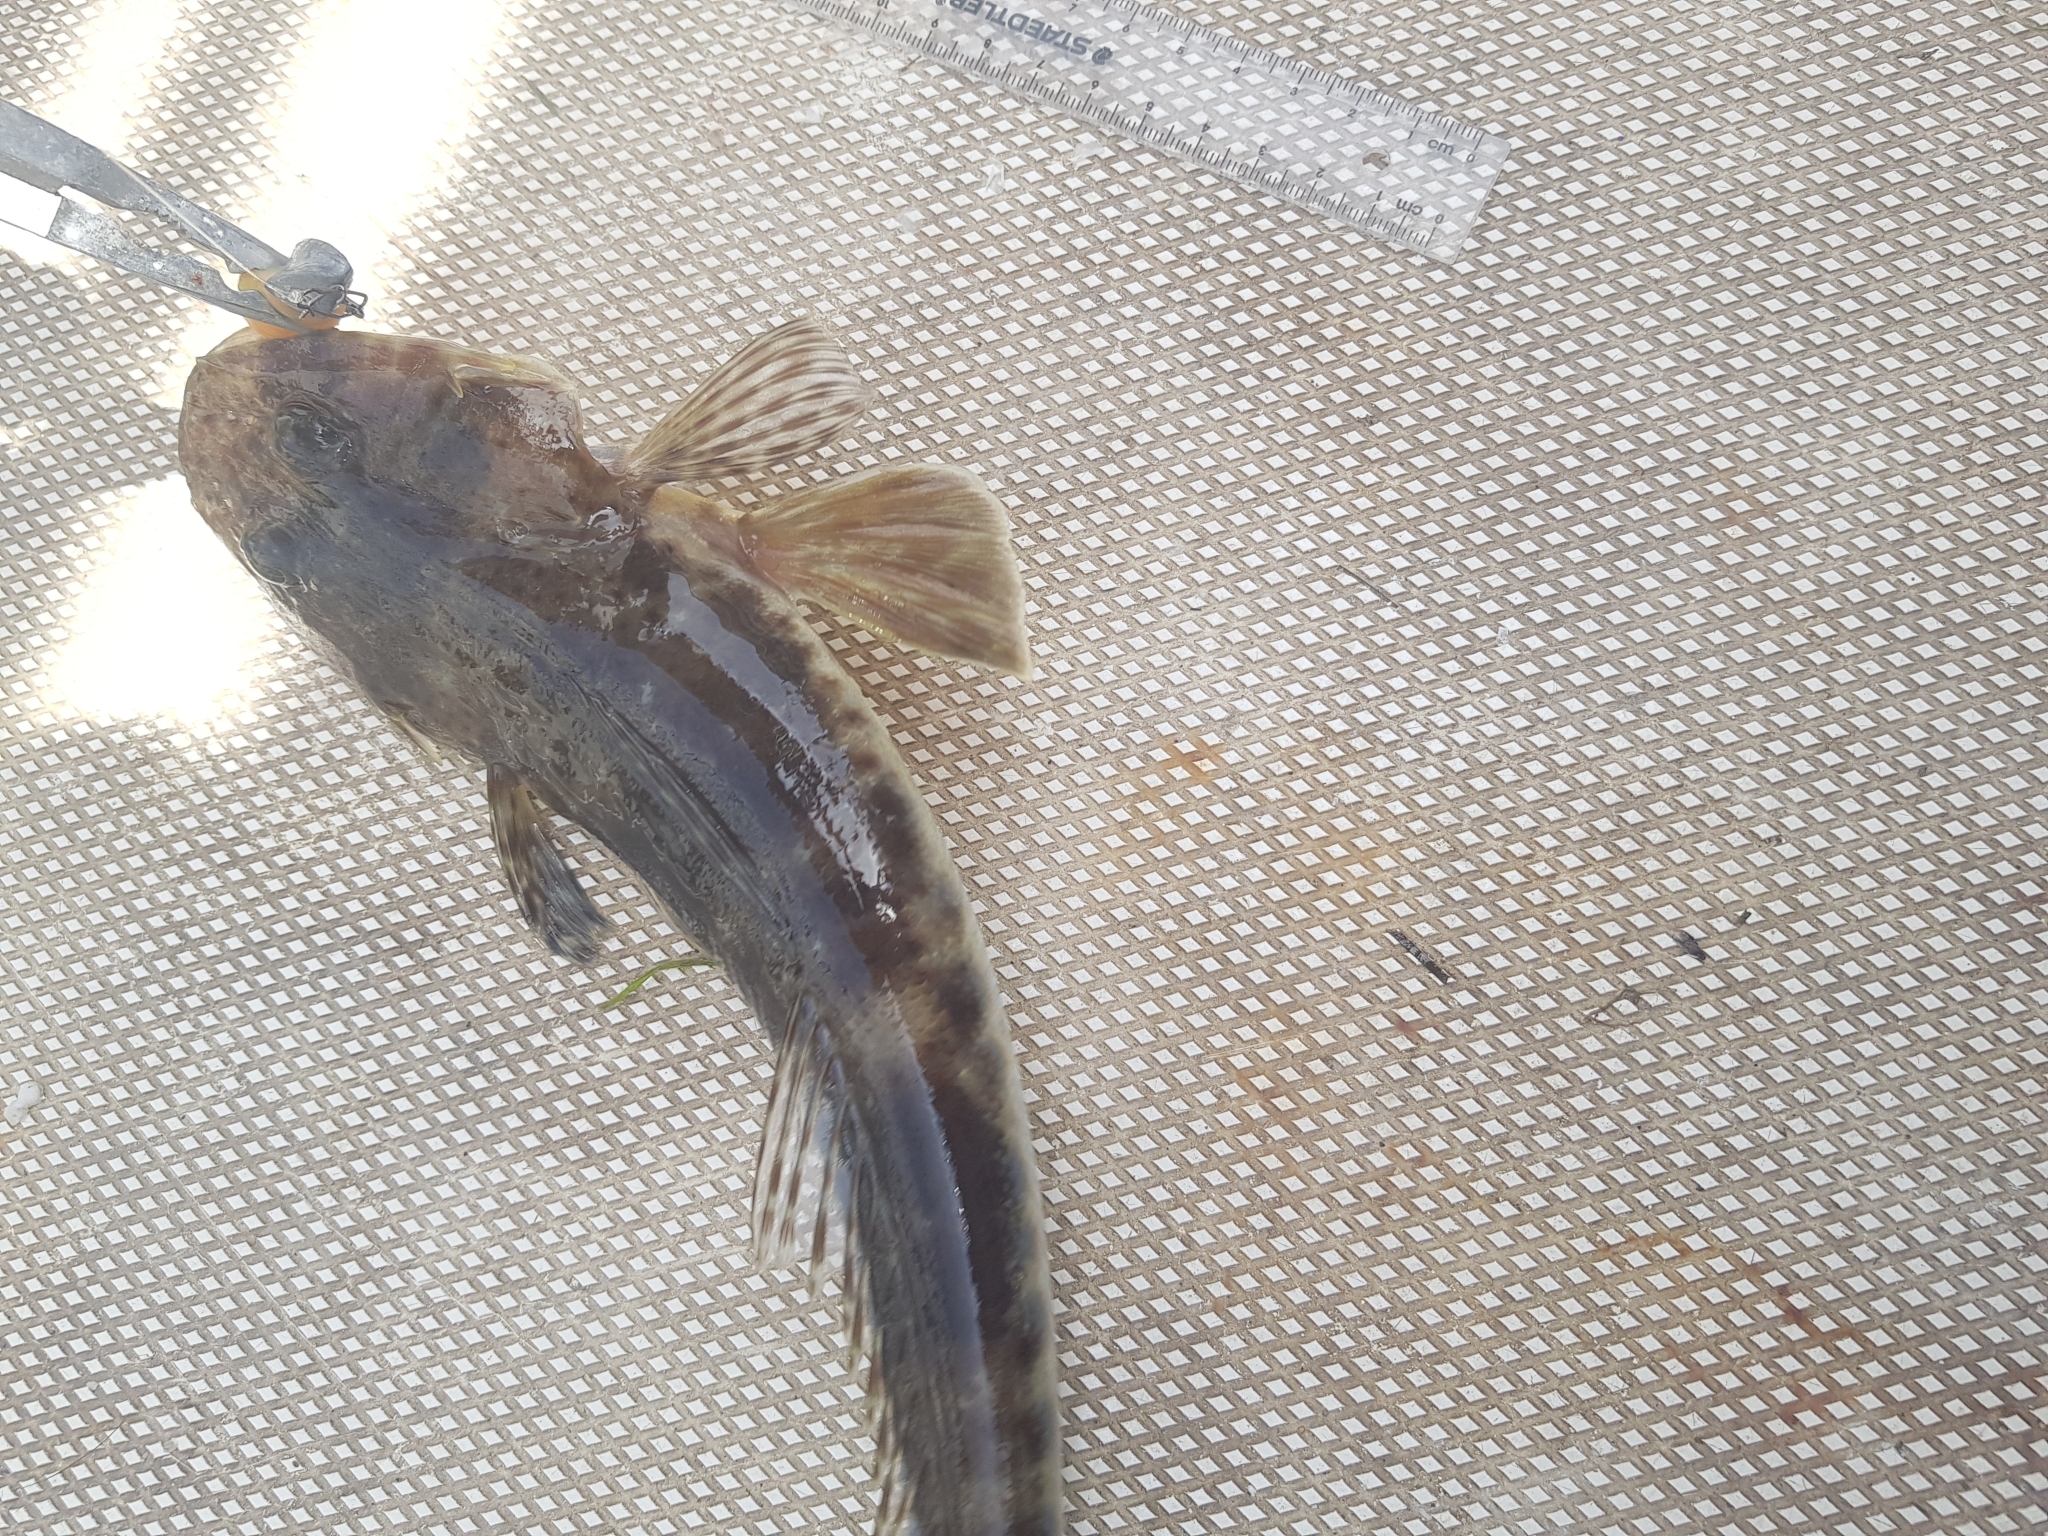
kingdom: Animalia
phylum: Chordata
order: Scorpaeniformes
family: Platycephalidae
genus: Platycephalus
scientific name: Platycephalus laevigatus
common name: Rock flathead
